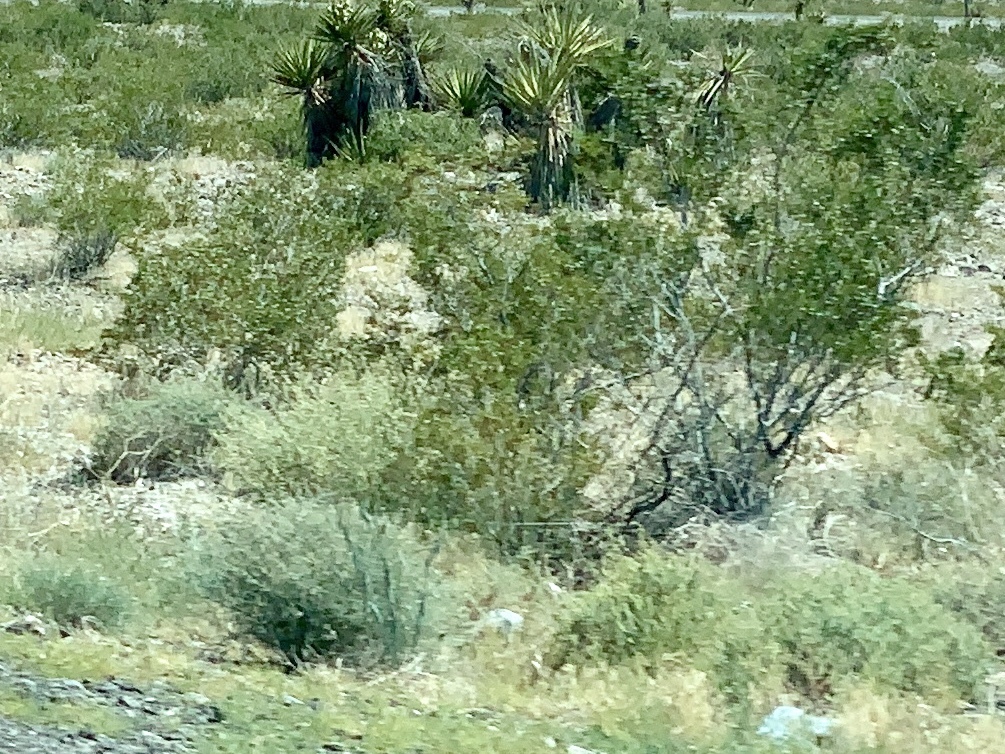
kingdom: Plantae
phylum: Tracheophyta
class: Magnoliopsida
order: Zygophyllales
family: Zygophyllaceae
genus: Larrea
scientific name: Larrea tridentata
